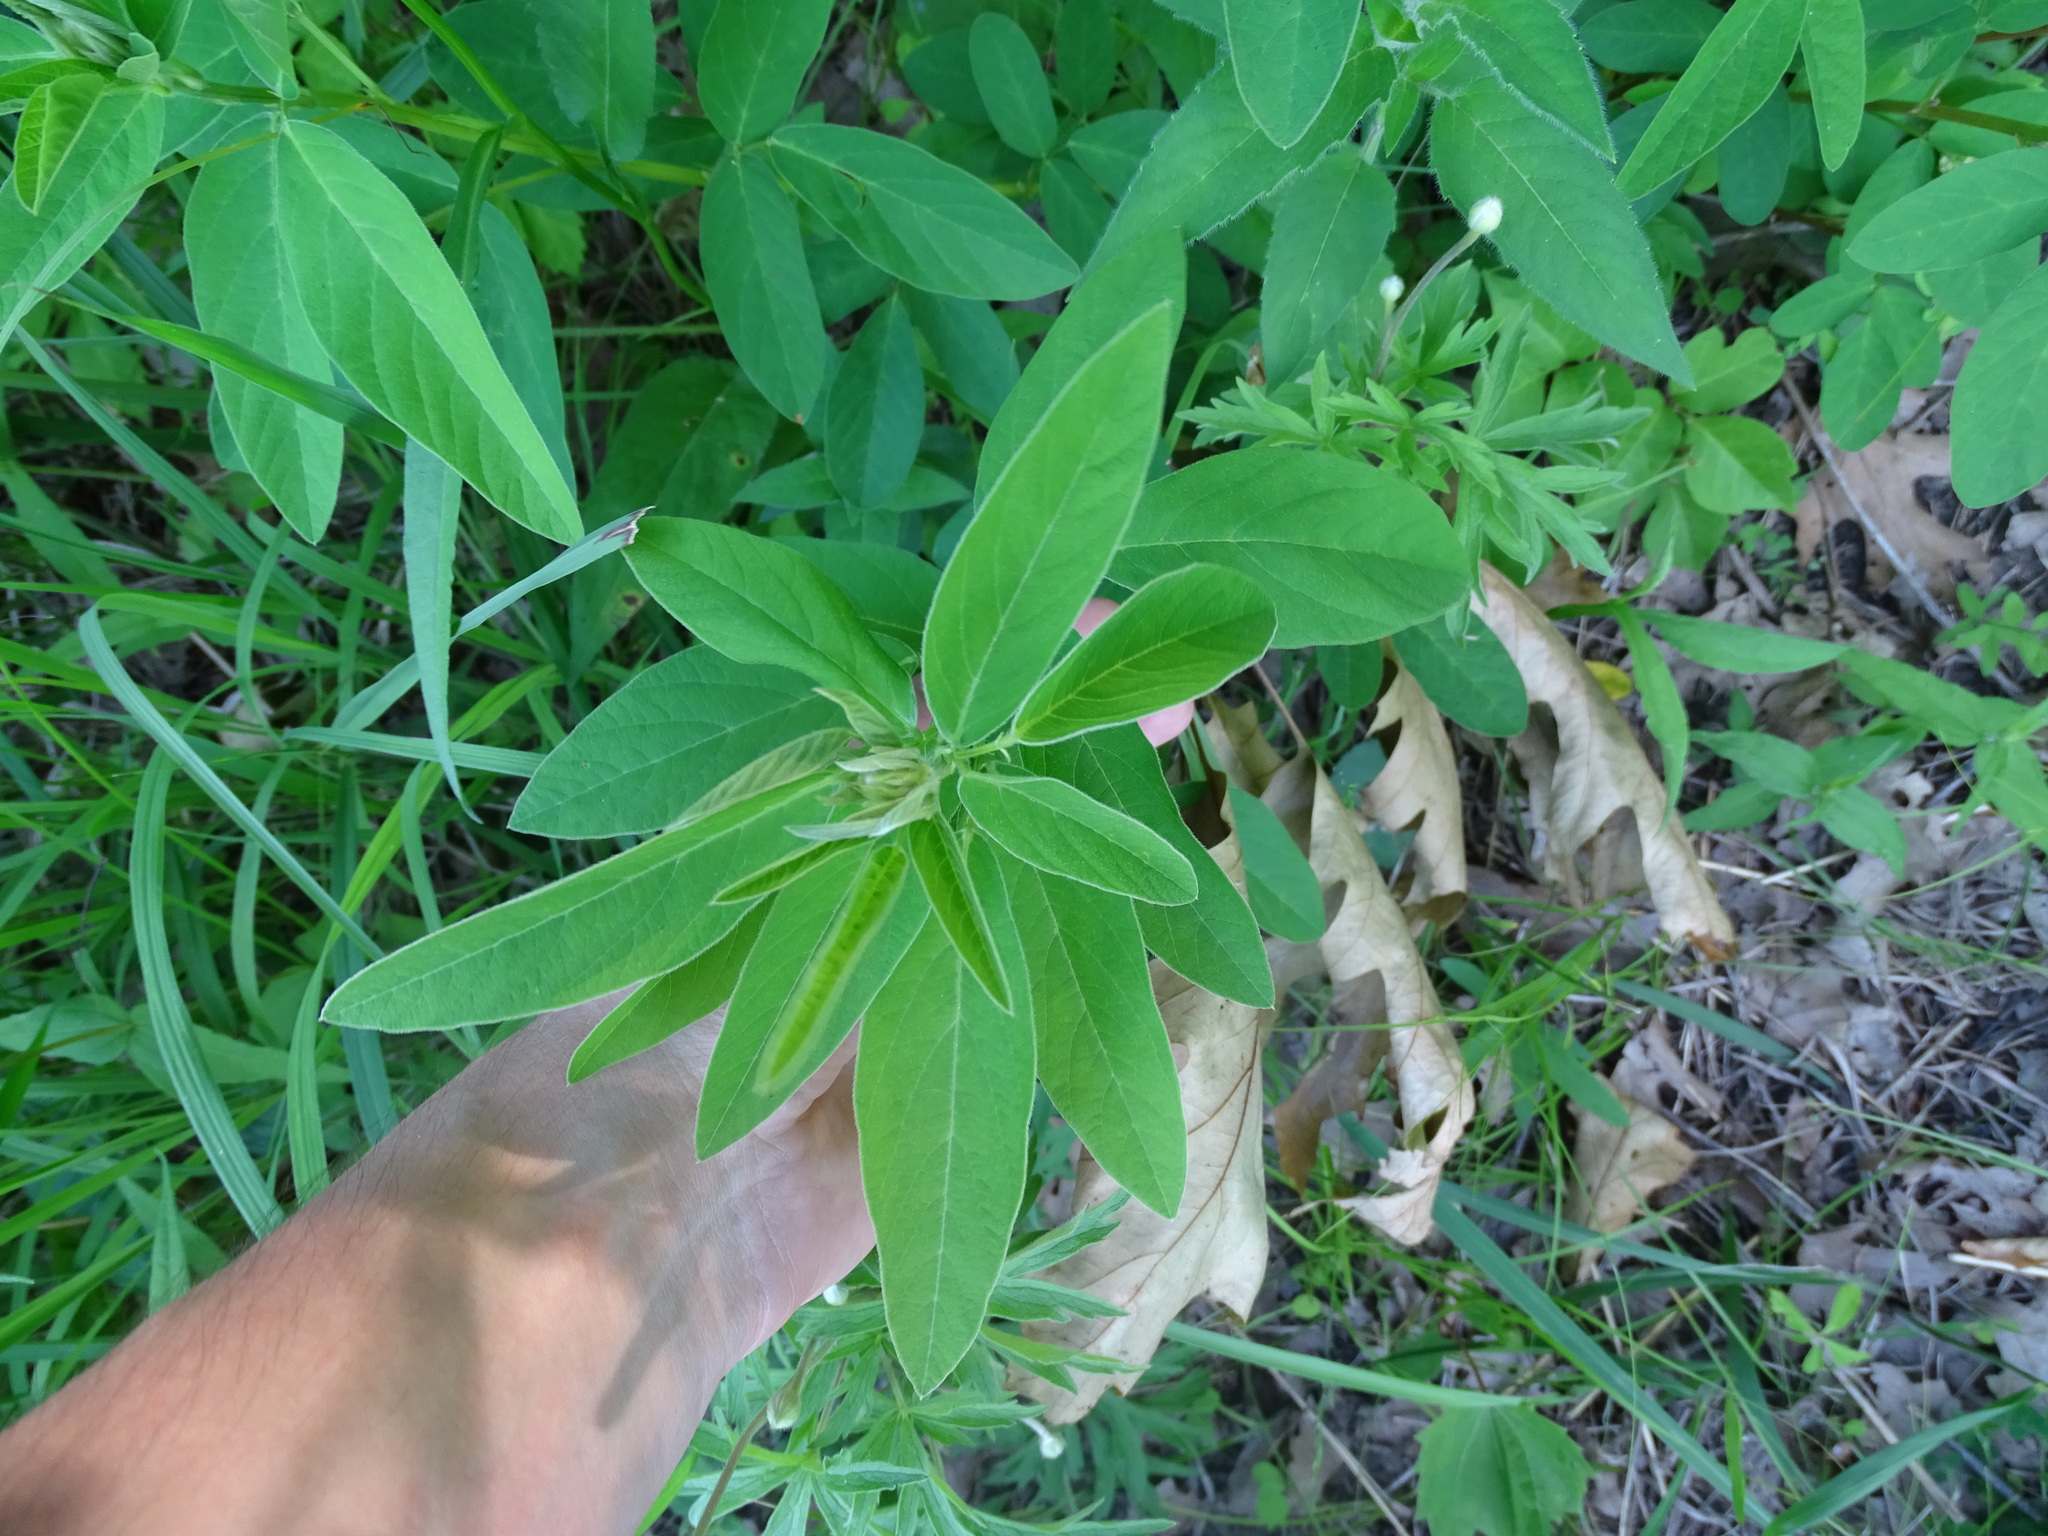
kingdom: Plantae
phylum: Tracheophyta
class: Magnoliopsida
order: Fabales
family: Fabaceae
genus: Desmodium
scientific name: Desmodium canadense
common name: Canada tick-trefoil
